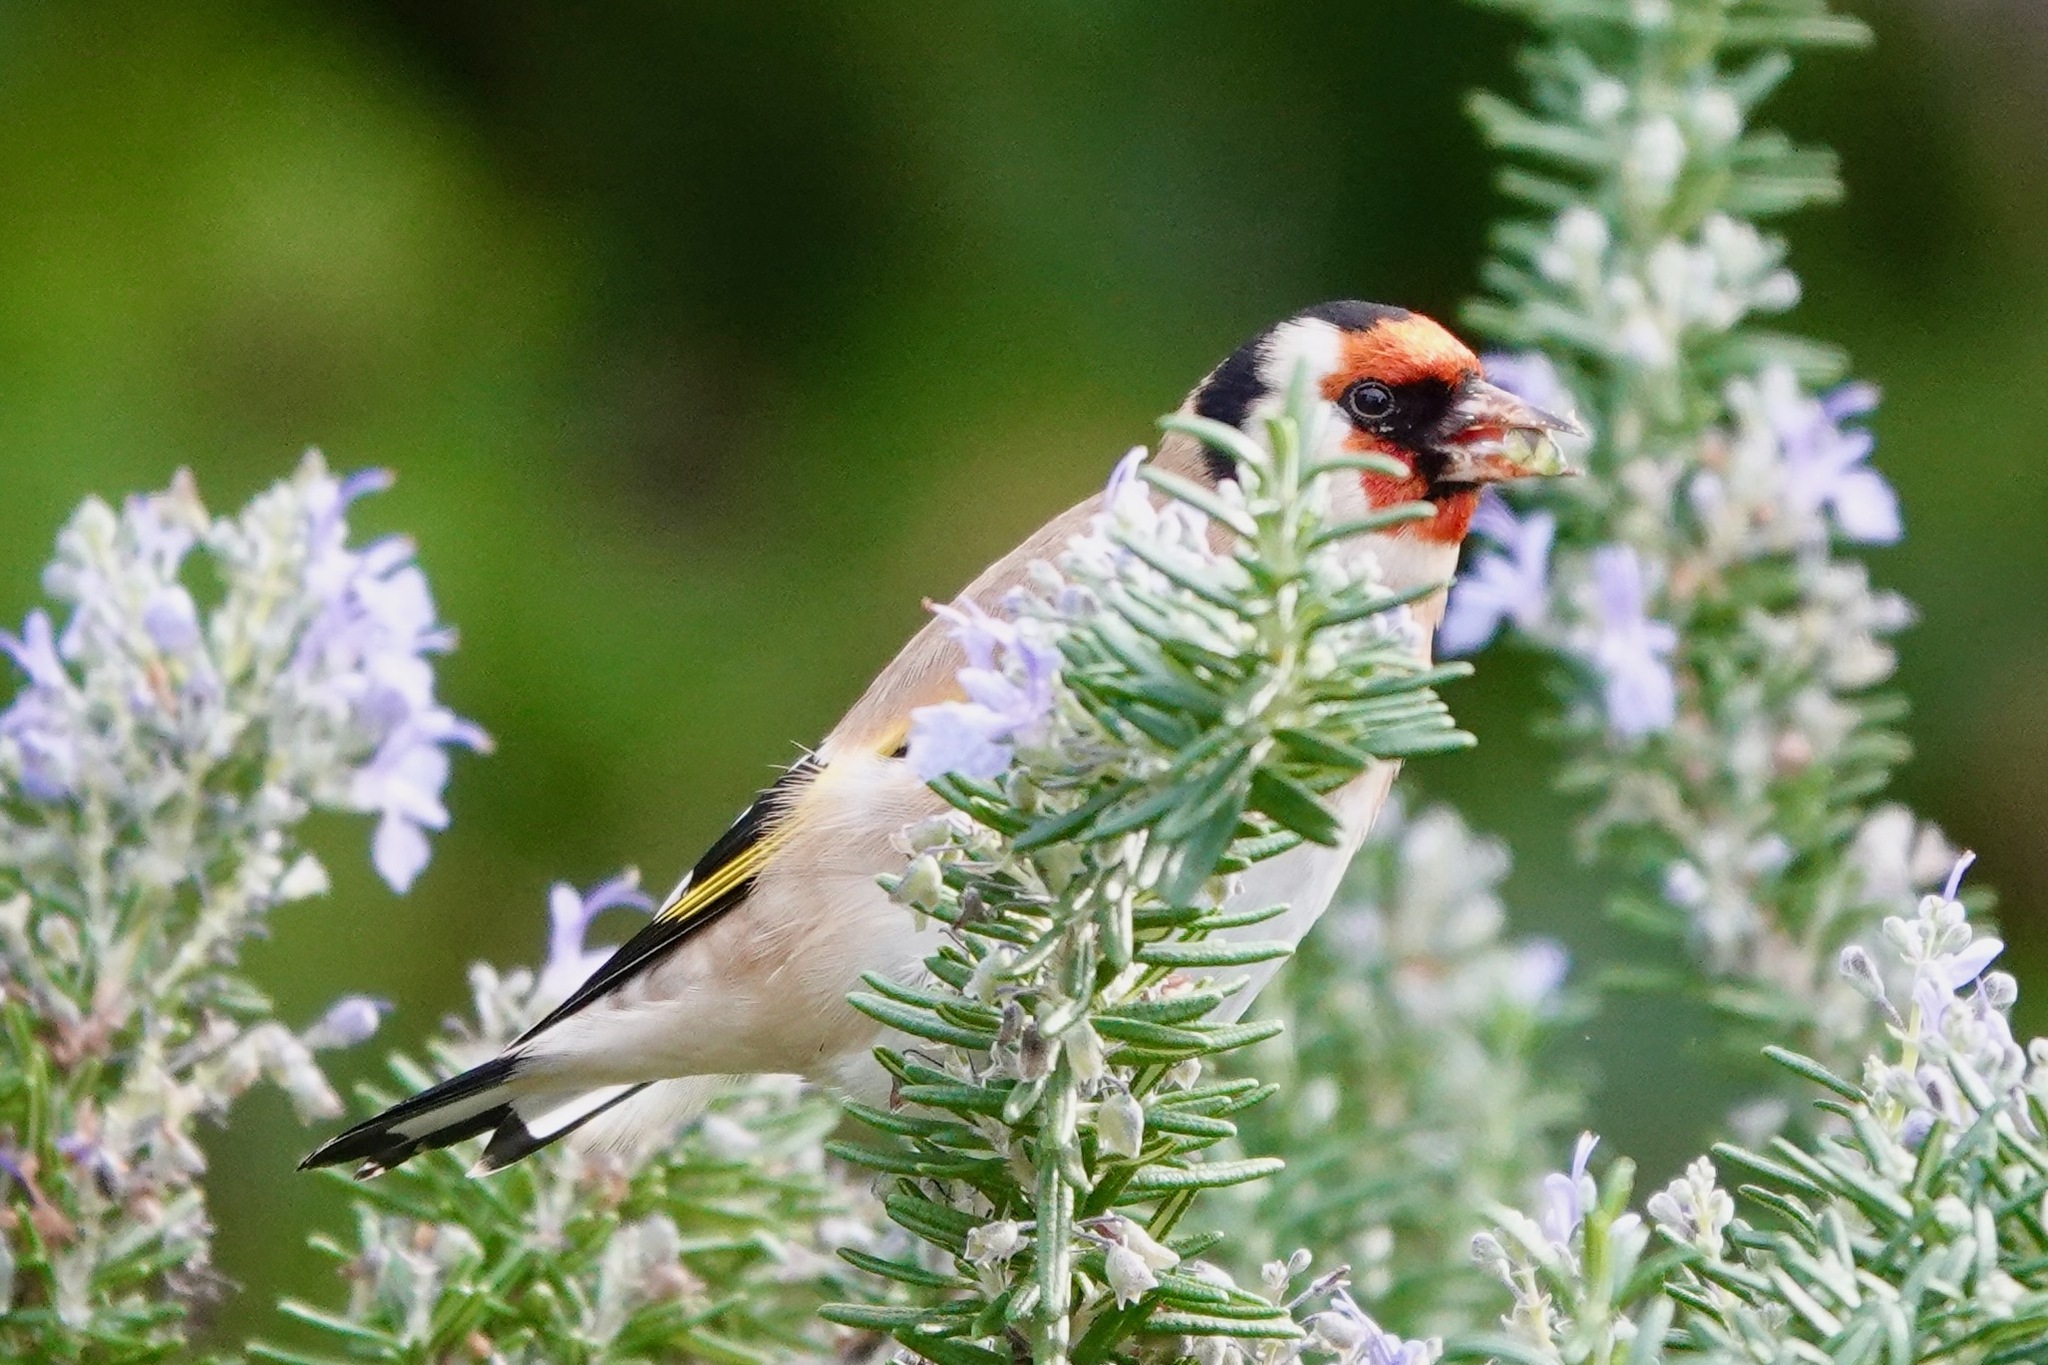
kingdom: Animalia
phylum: Chordata
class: Aves
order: Passeriformes
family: Fringillidae
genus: Carduelis
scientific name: Carduelis carduelis
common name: European goldfinch
